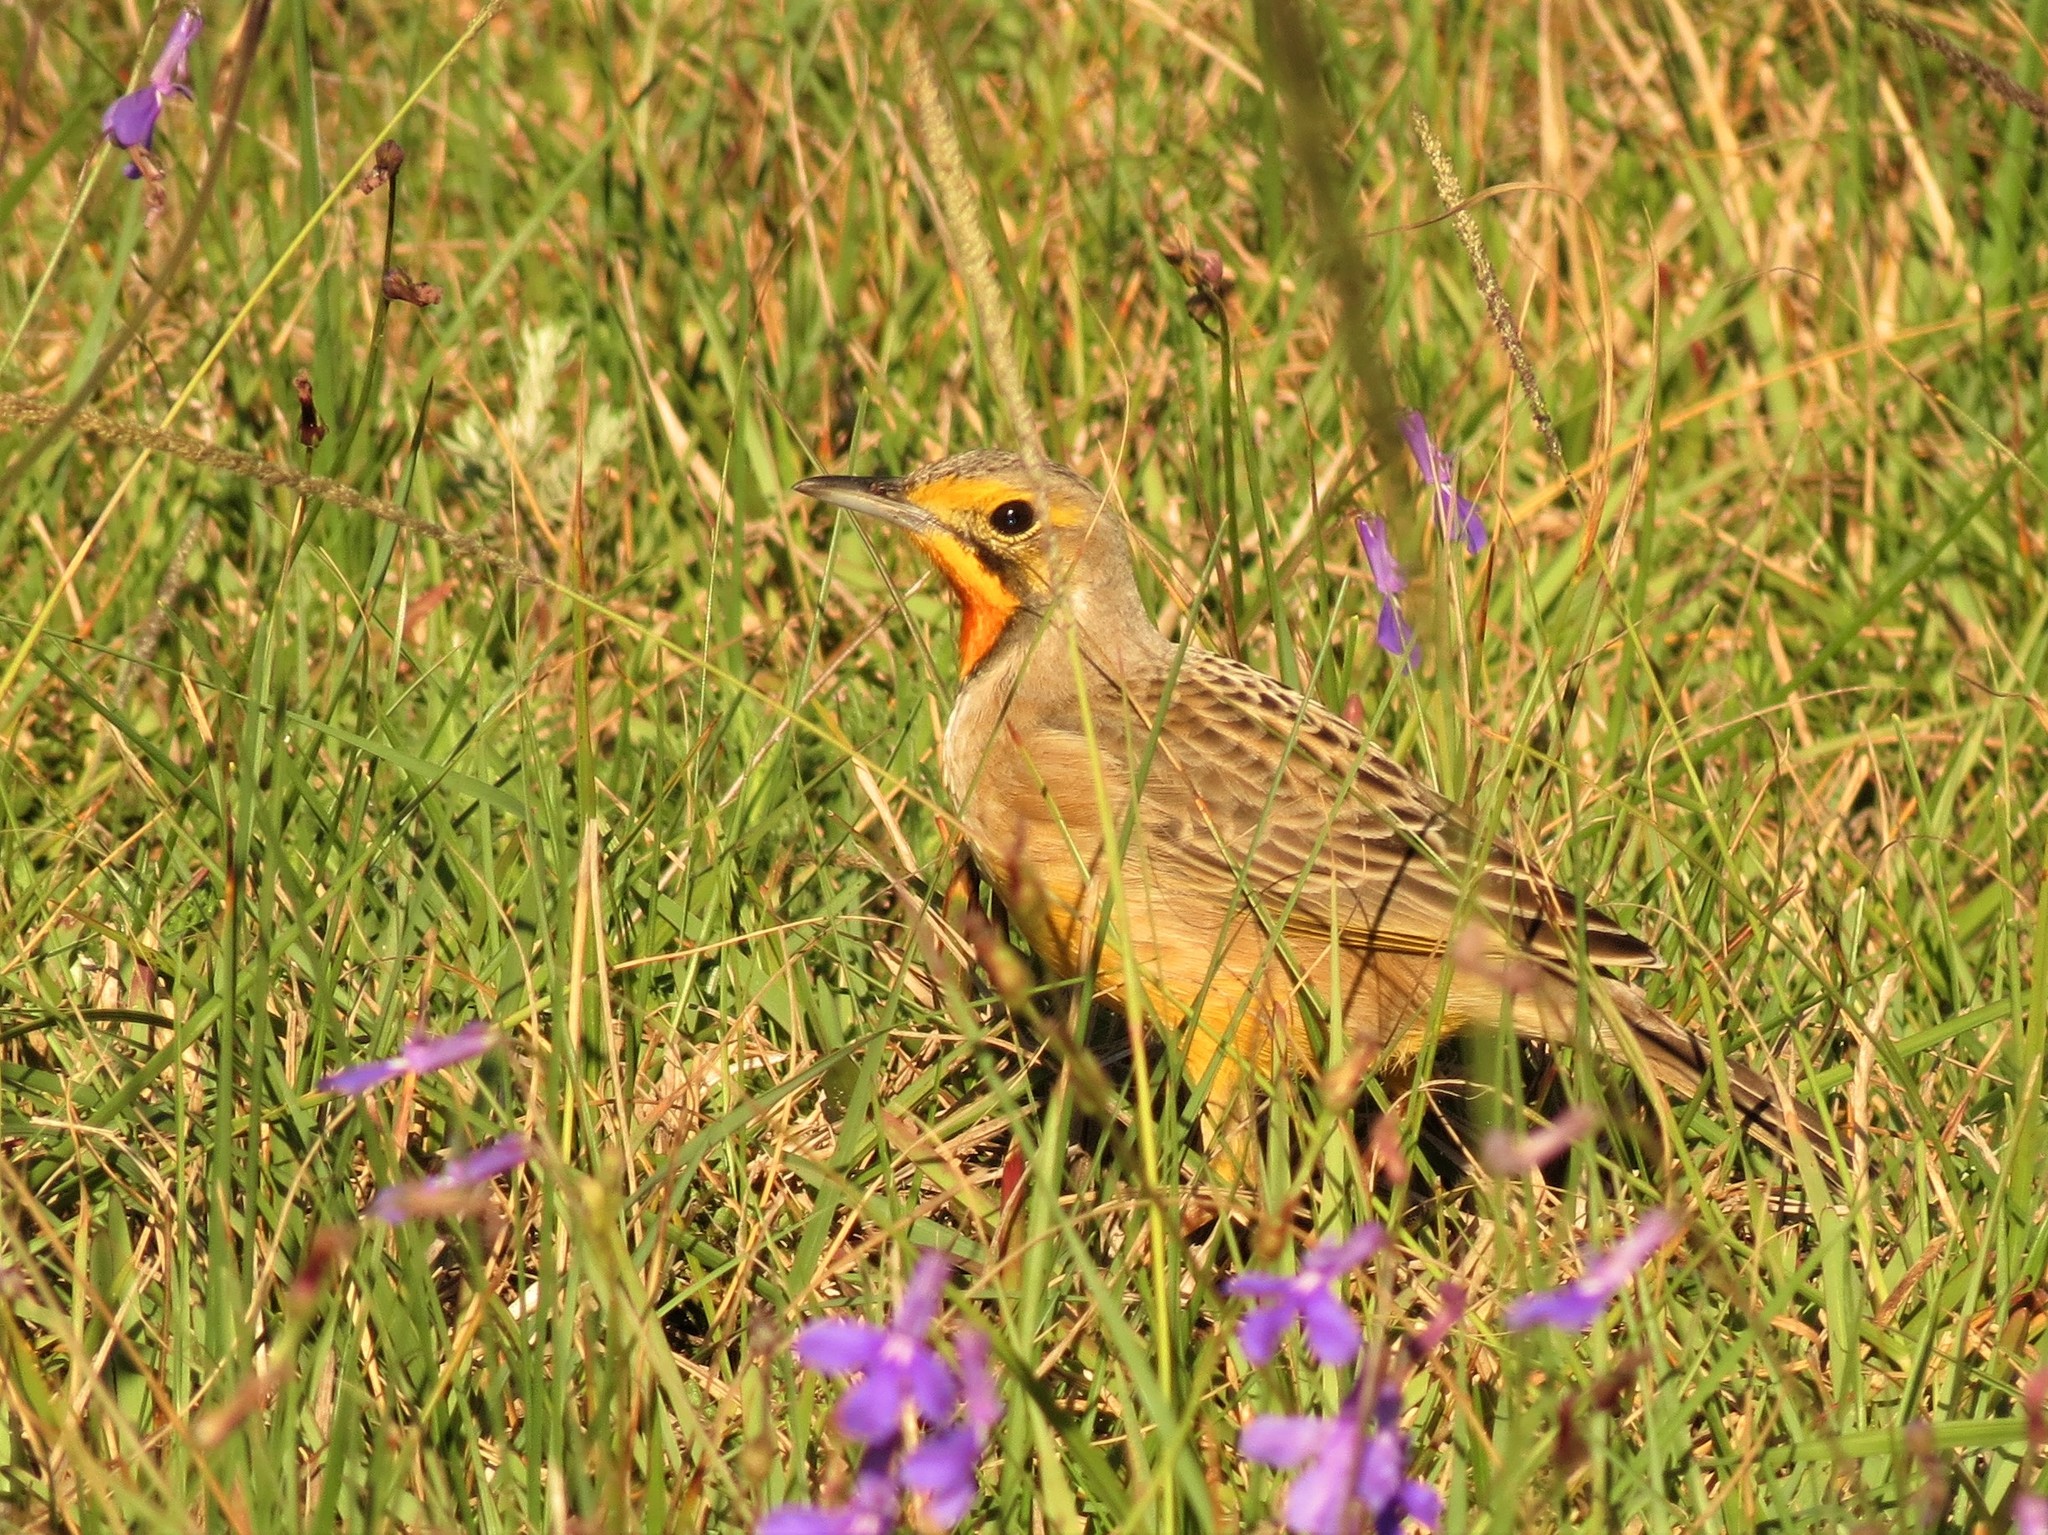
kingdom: Animalia
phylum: Chordata
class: Aves
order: Passeriformes
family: Motacillidae
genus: Macronyx
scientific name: Macronyx capensis
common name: Cape longclaw
